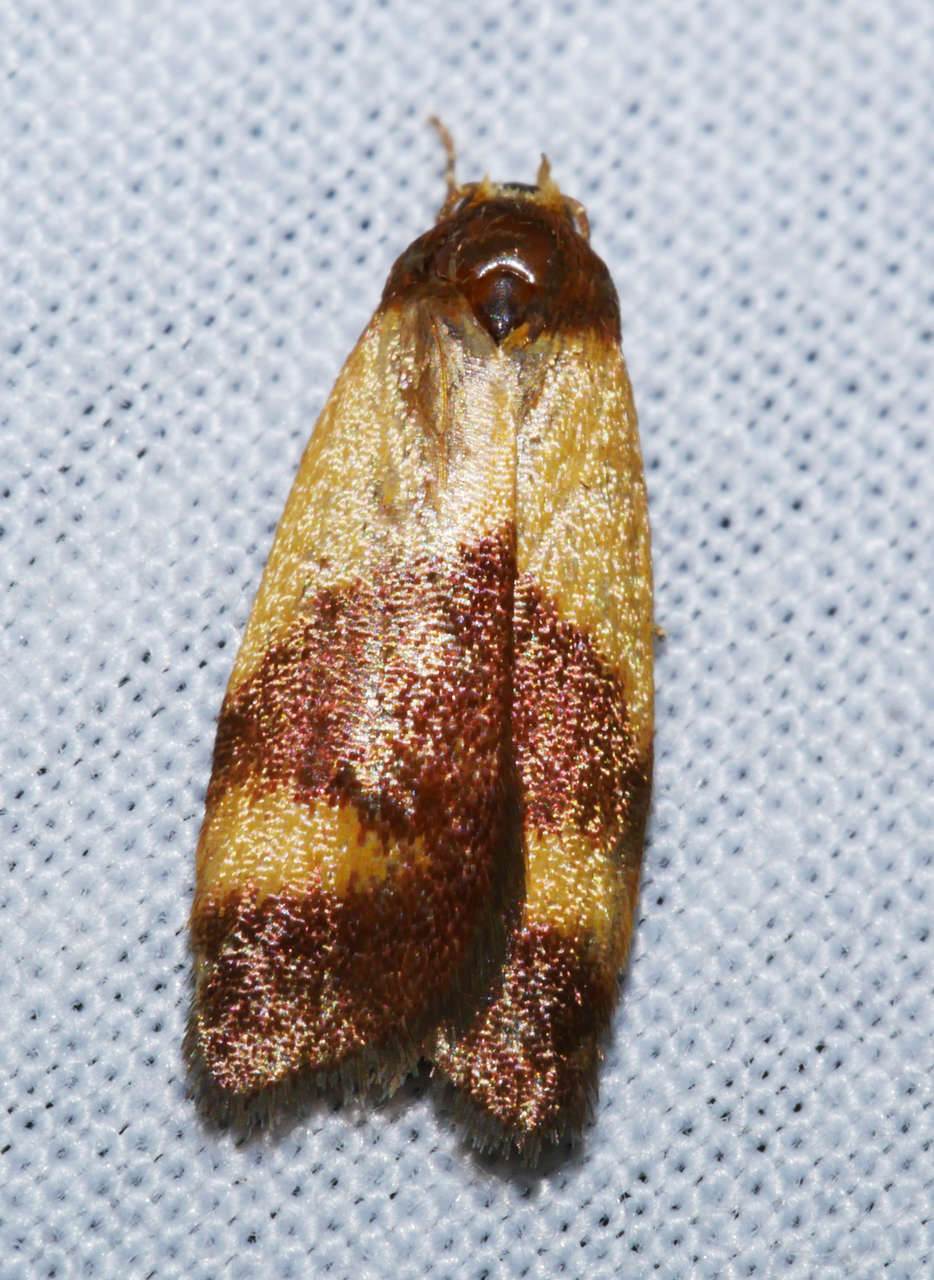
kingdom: Animalia
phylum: Arthropoda
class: Insecta
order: Lepidoptera
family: Oecophoridae
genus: Eochrois
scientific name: Eochrois epidesma
